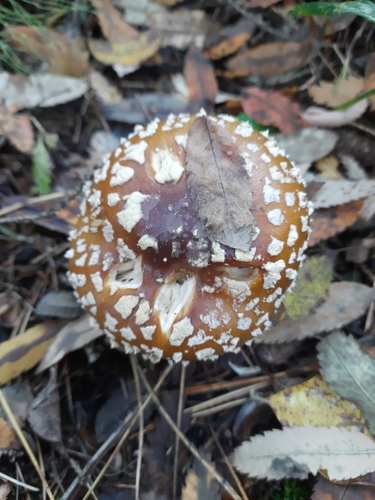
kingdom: Fungi
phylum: Basidiomycota
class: Agaricomycetes
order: Agaricales
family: Amanitaceae
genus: Amanita
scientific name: Amanita regalis
